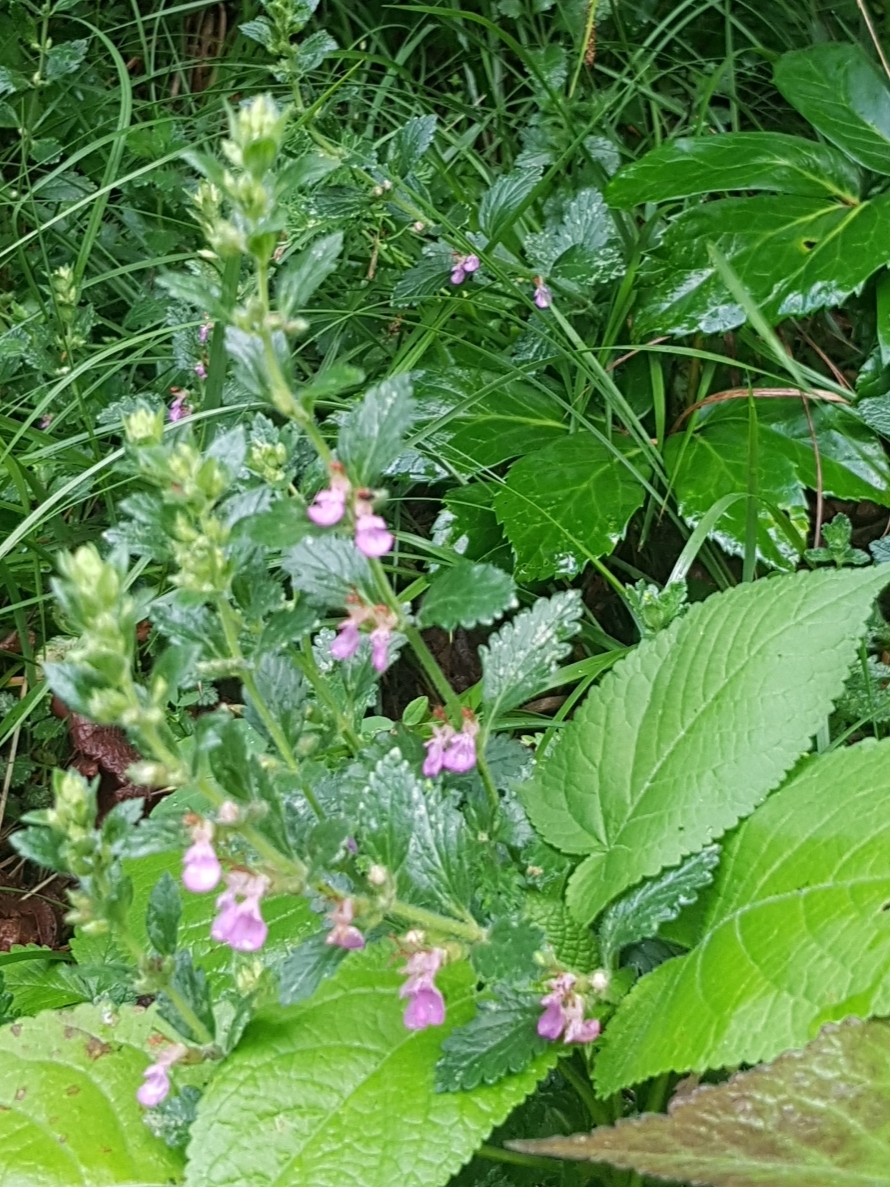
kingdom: Plantae
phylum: Tracheophyta
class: Magnoliopsida
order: Lamiales
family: Lamiaceae
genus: Teucrium
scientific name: Teucrium chamaedrys
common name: Wall germander
